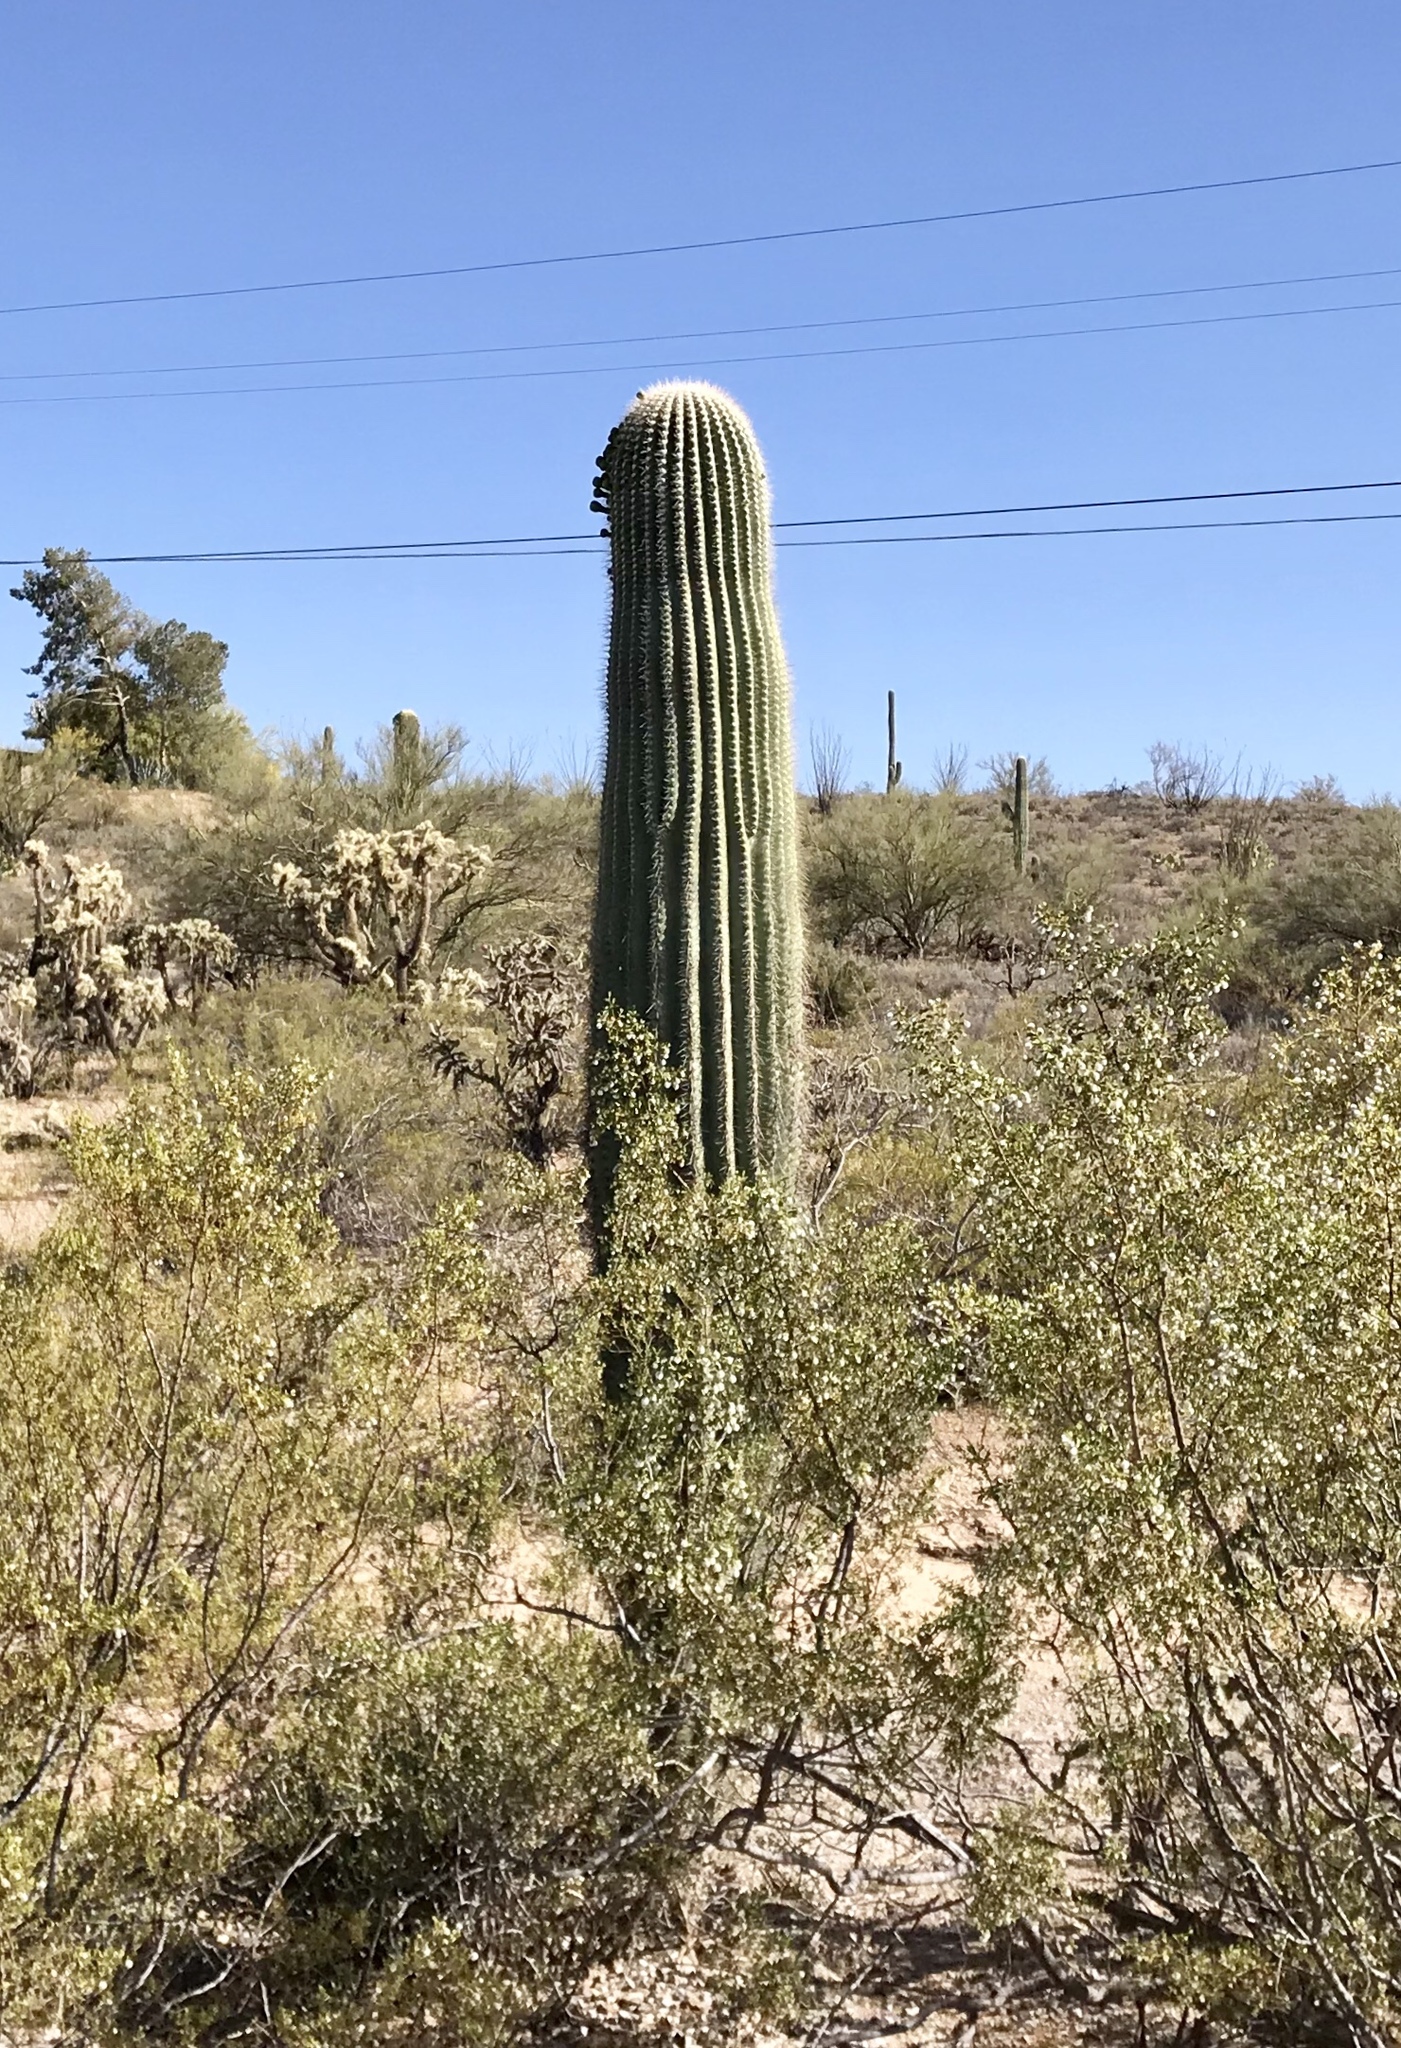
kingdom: Plantae
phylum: Tracheophyta
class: Magnoliopsida
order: Caryophyllales
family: Cactaceae
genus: Carnegiea
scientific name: Carnegiea gigantea
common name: Saguaro
